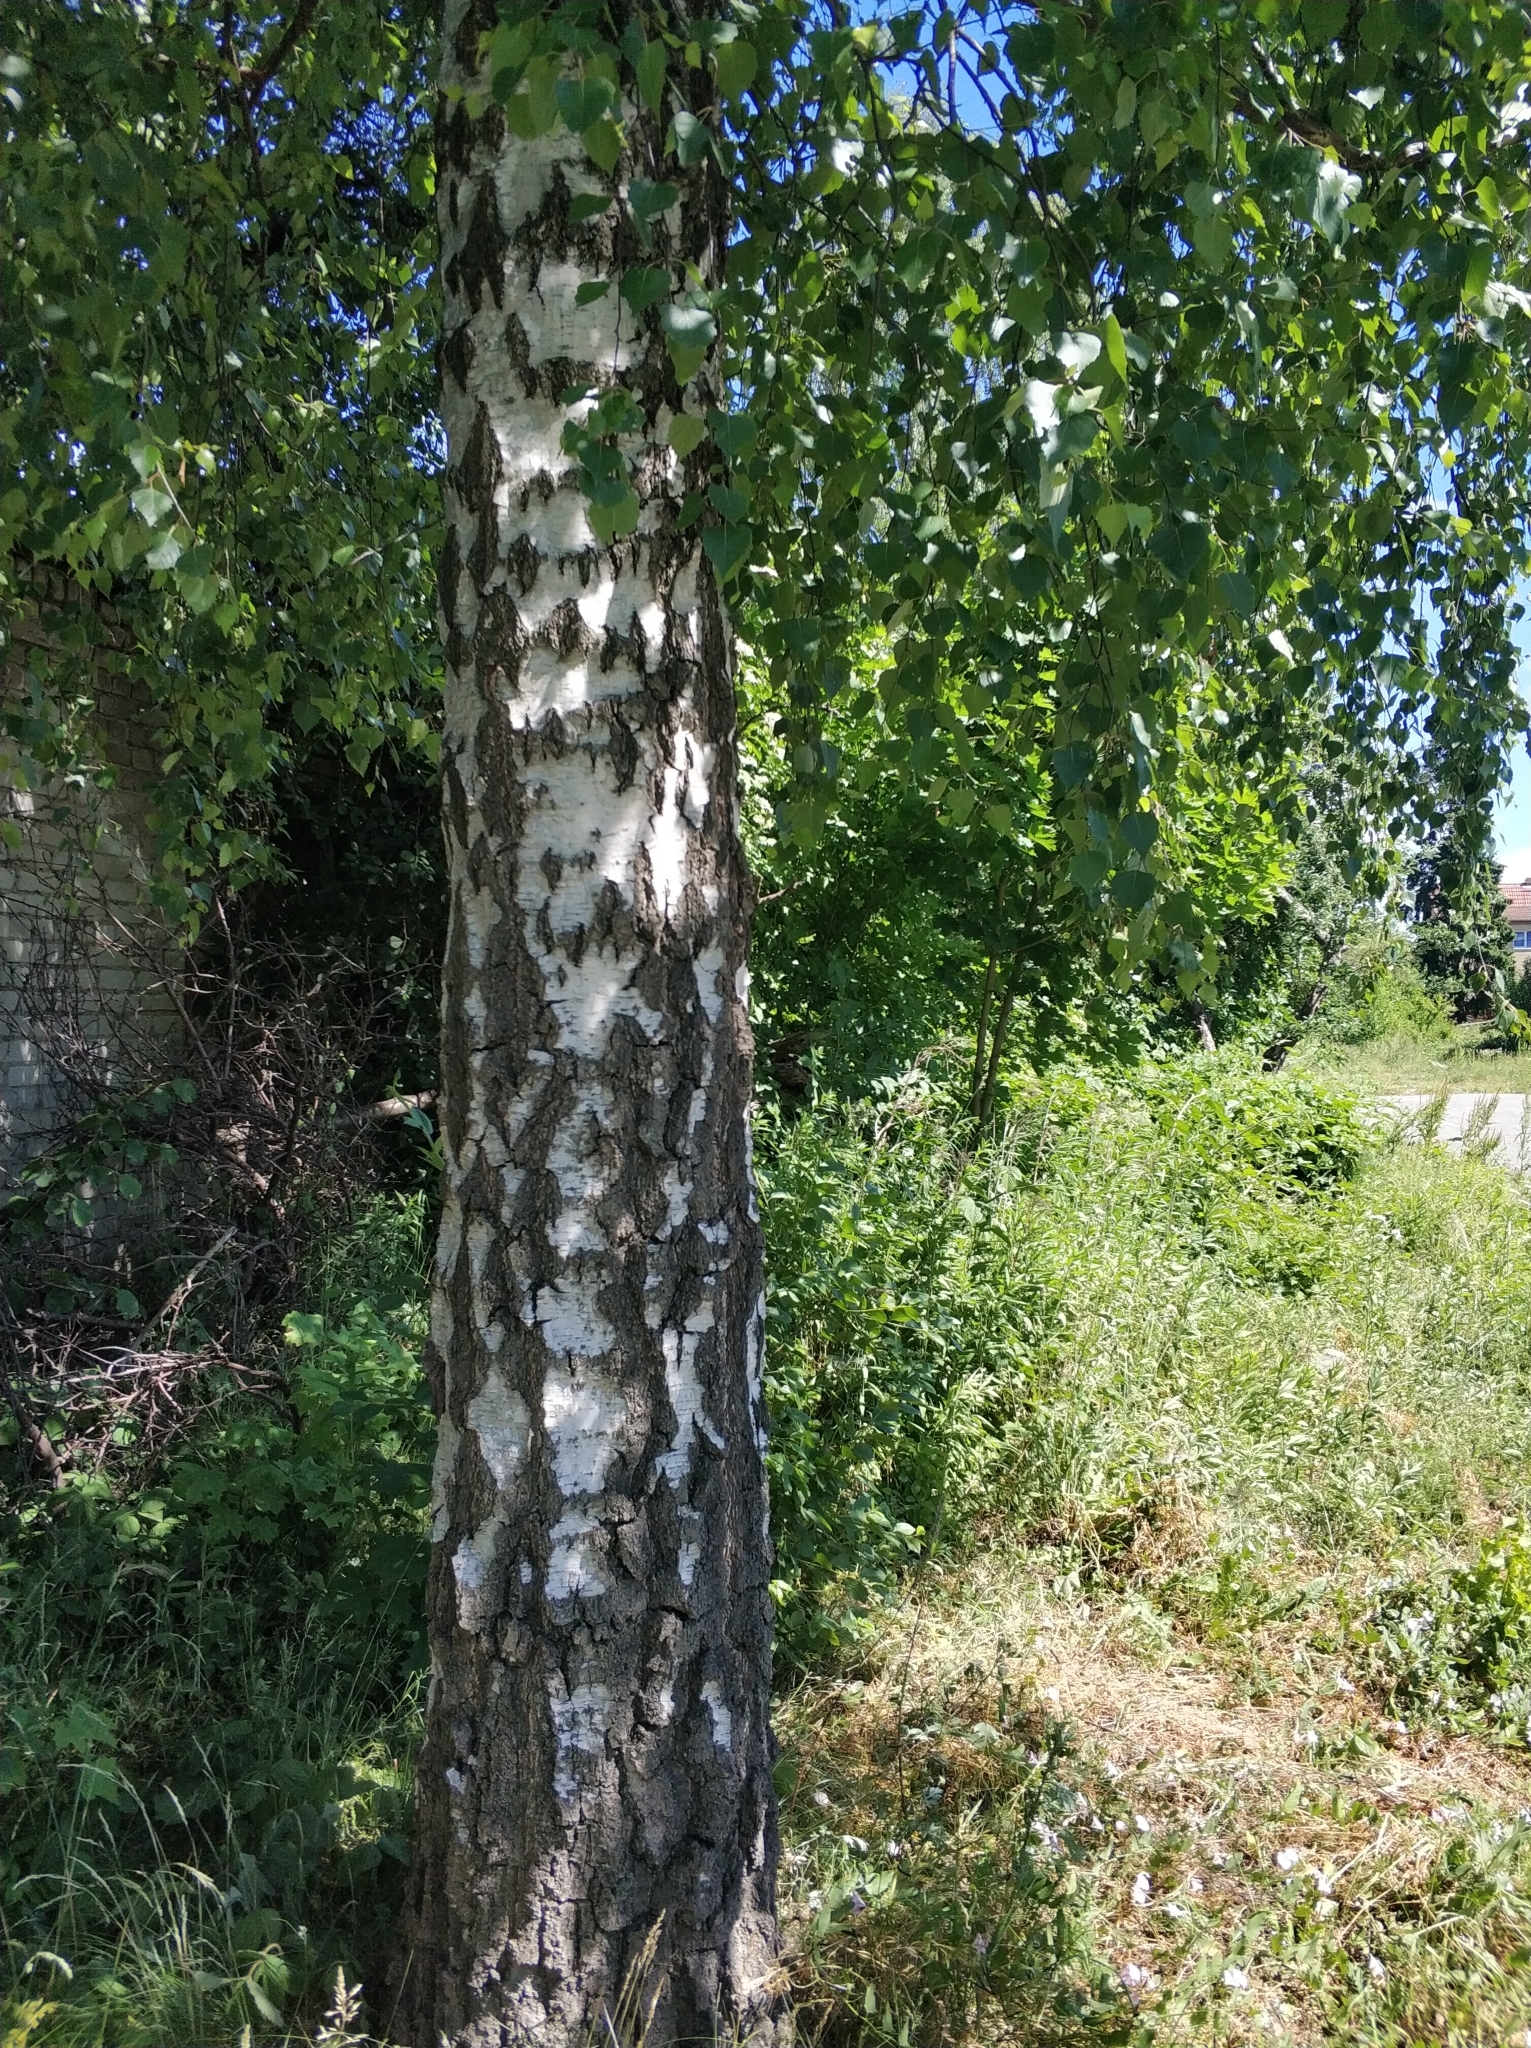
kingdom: Plantae
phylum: Tracheophyta
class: Magnoliopsida
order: Fagales
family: Betulaceae
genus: Betula
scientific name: Betula pendula
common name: Silver birch
